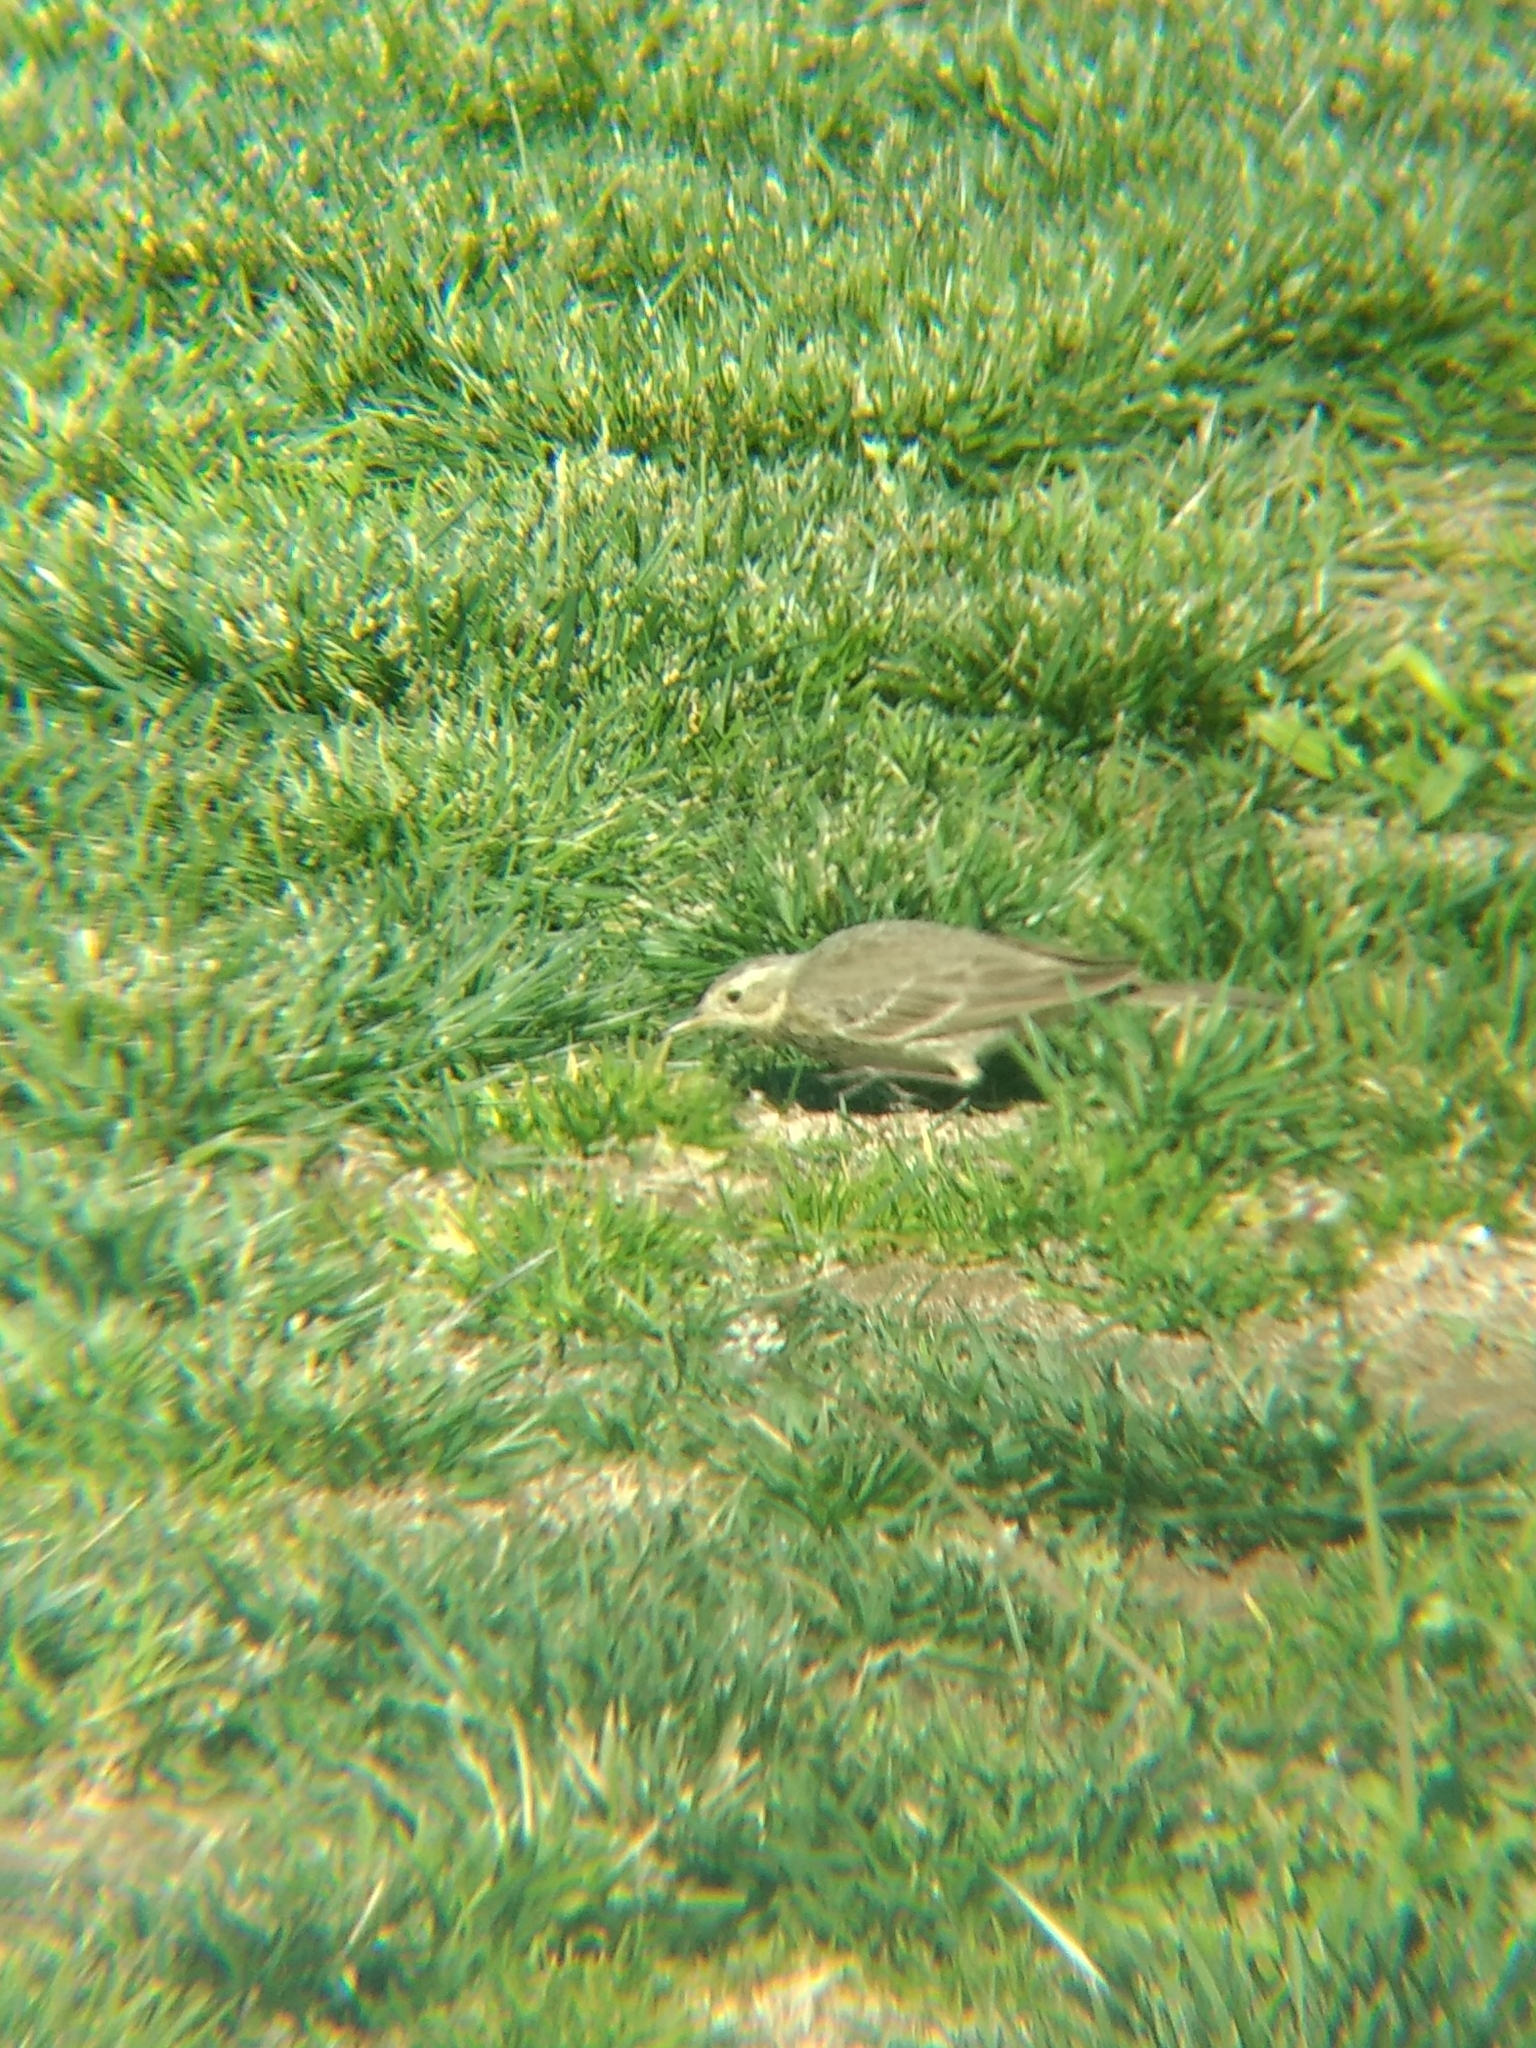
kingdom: Animalia
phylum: Chordata
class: Aves
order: Passeriformes
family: Motacillidae
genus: Anthus
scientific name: Anthus rubescens
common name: Buff-bellied pipit
